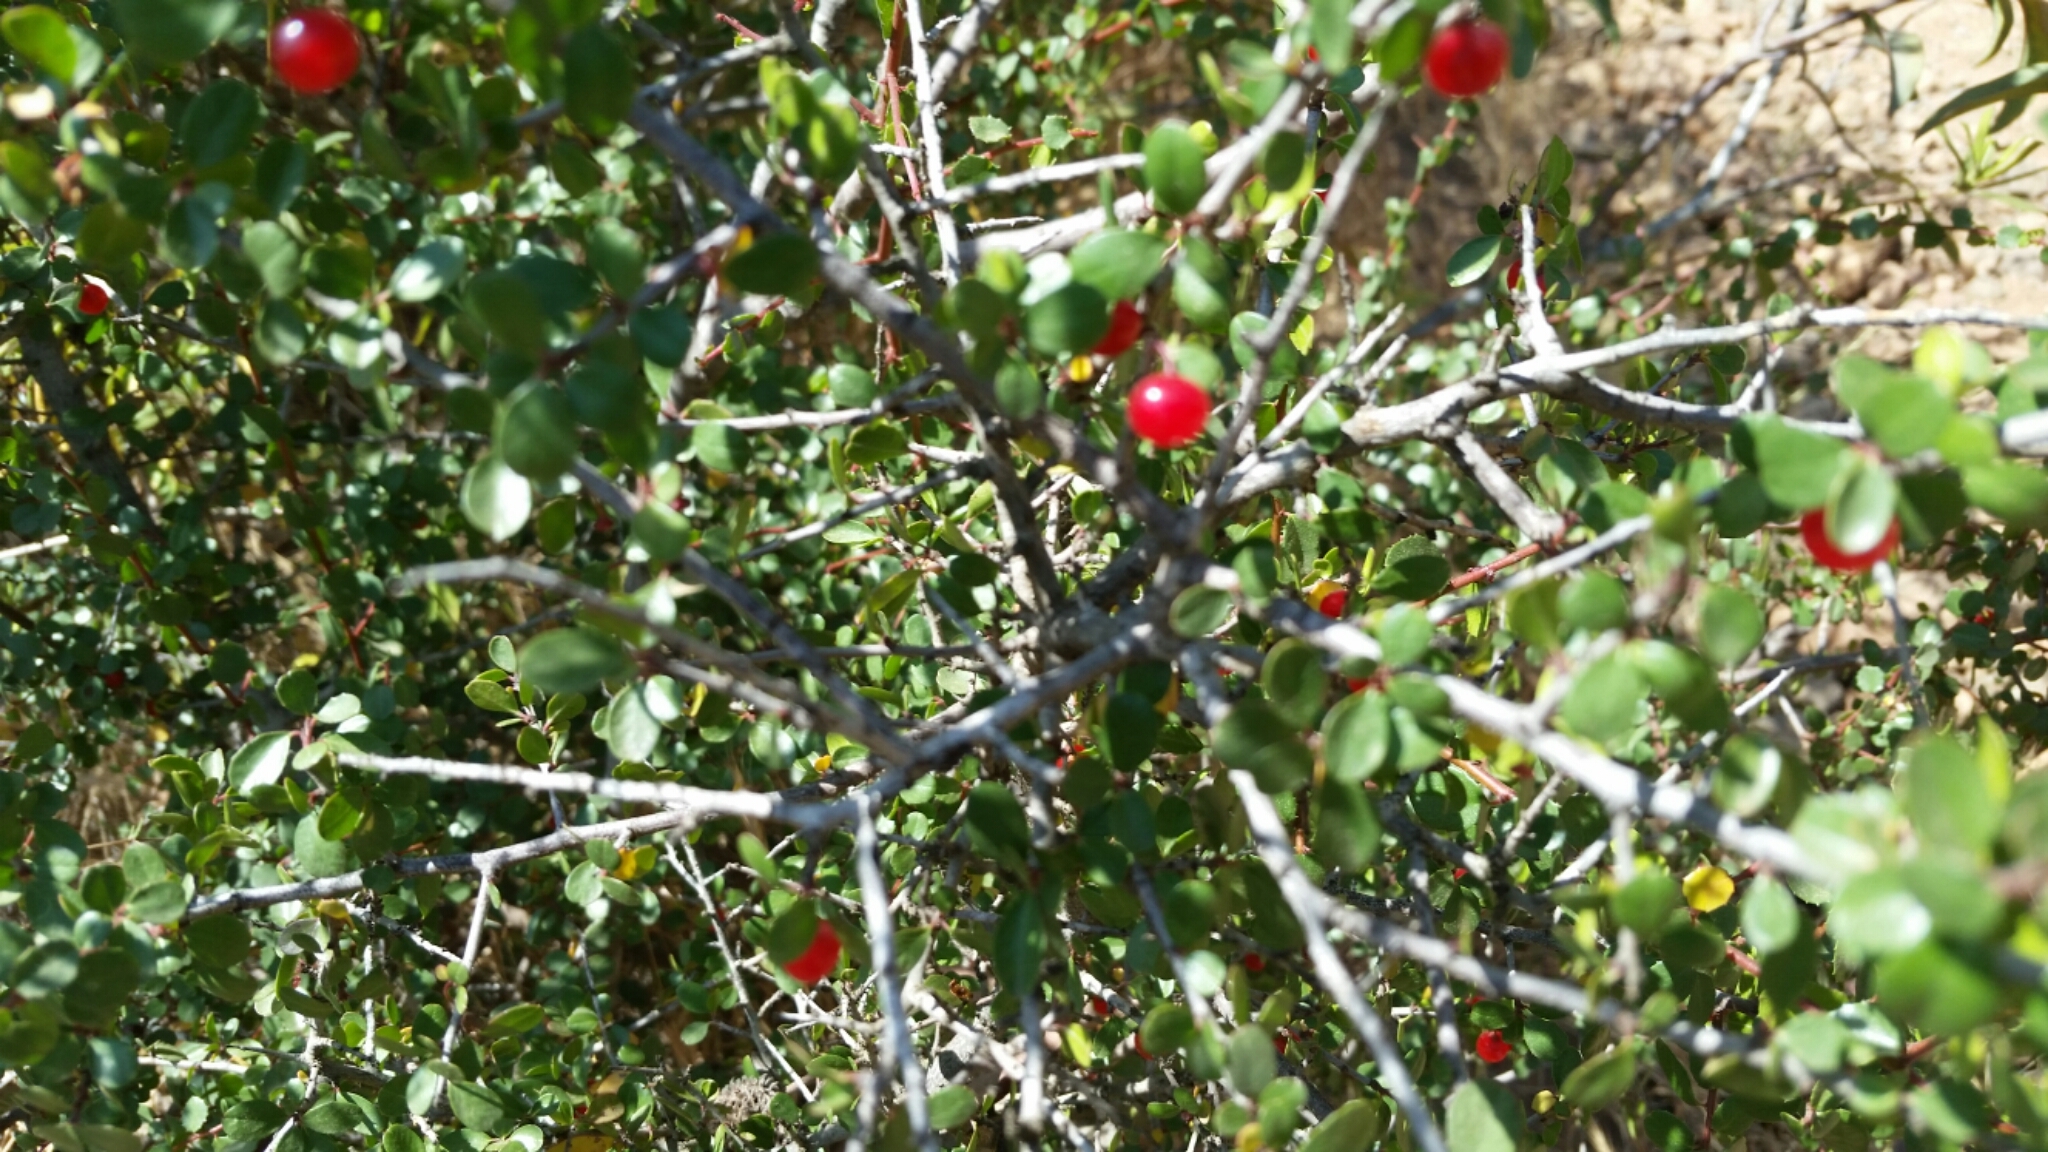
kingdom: Plantae
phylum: Tracheophyta
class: Magnoliopsida
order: Rosales
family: Rhamnaceae
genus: Endotropis
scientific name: Endotropis crocea
